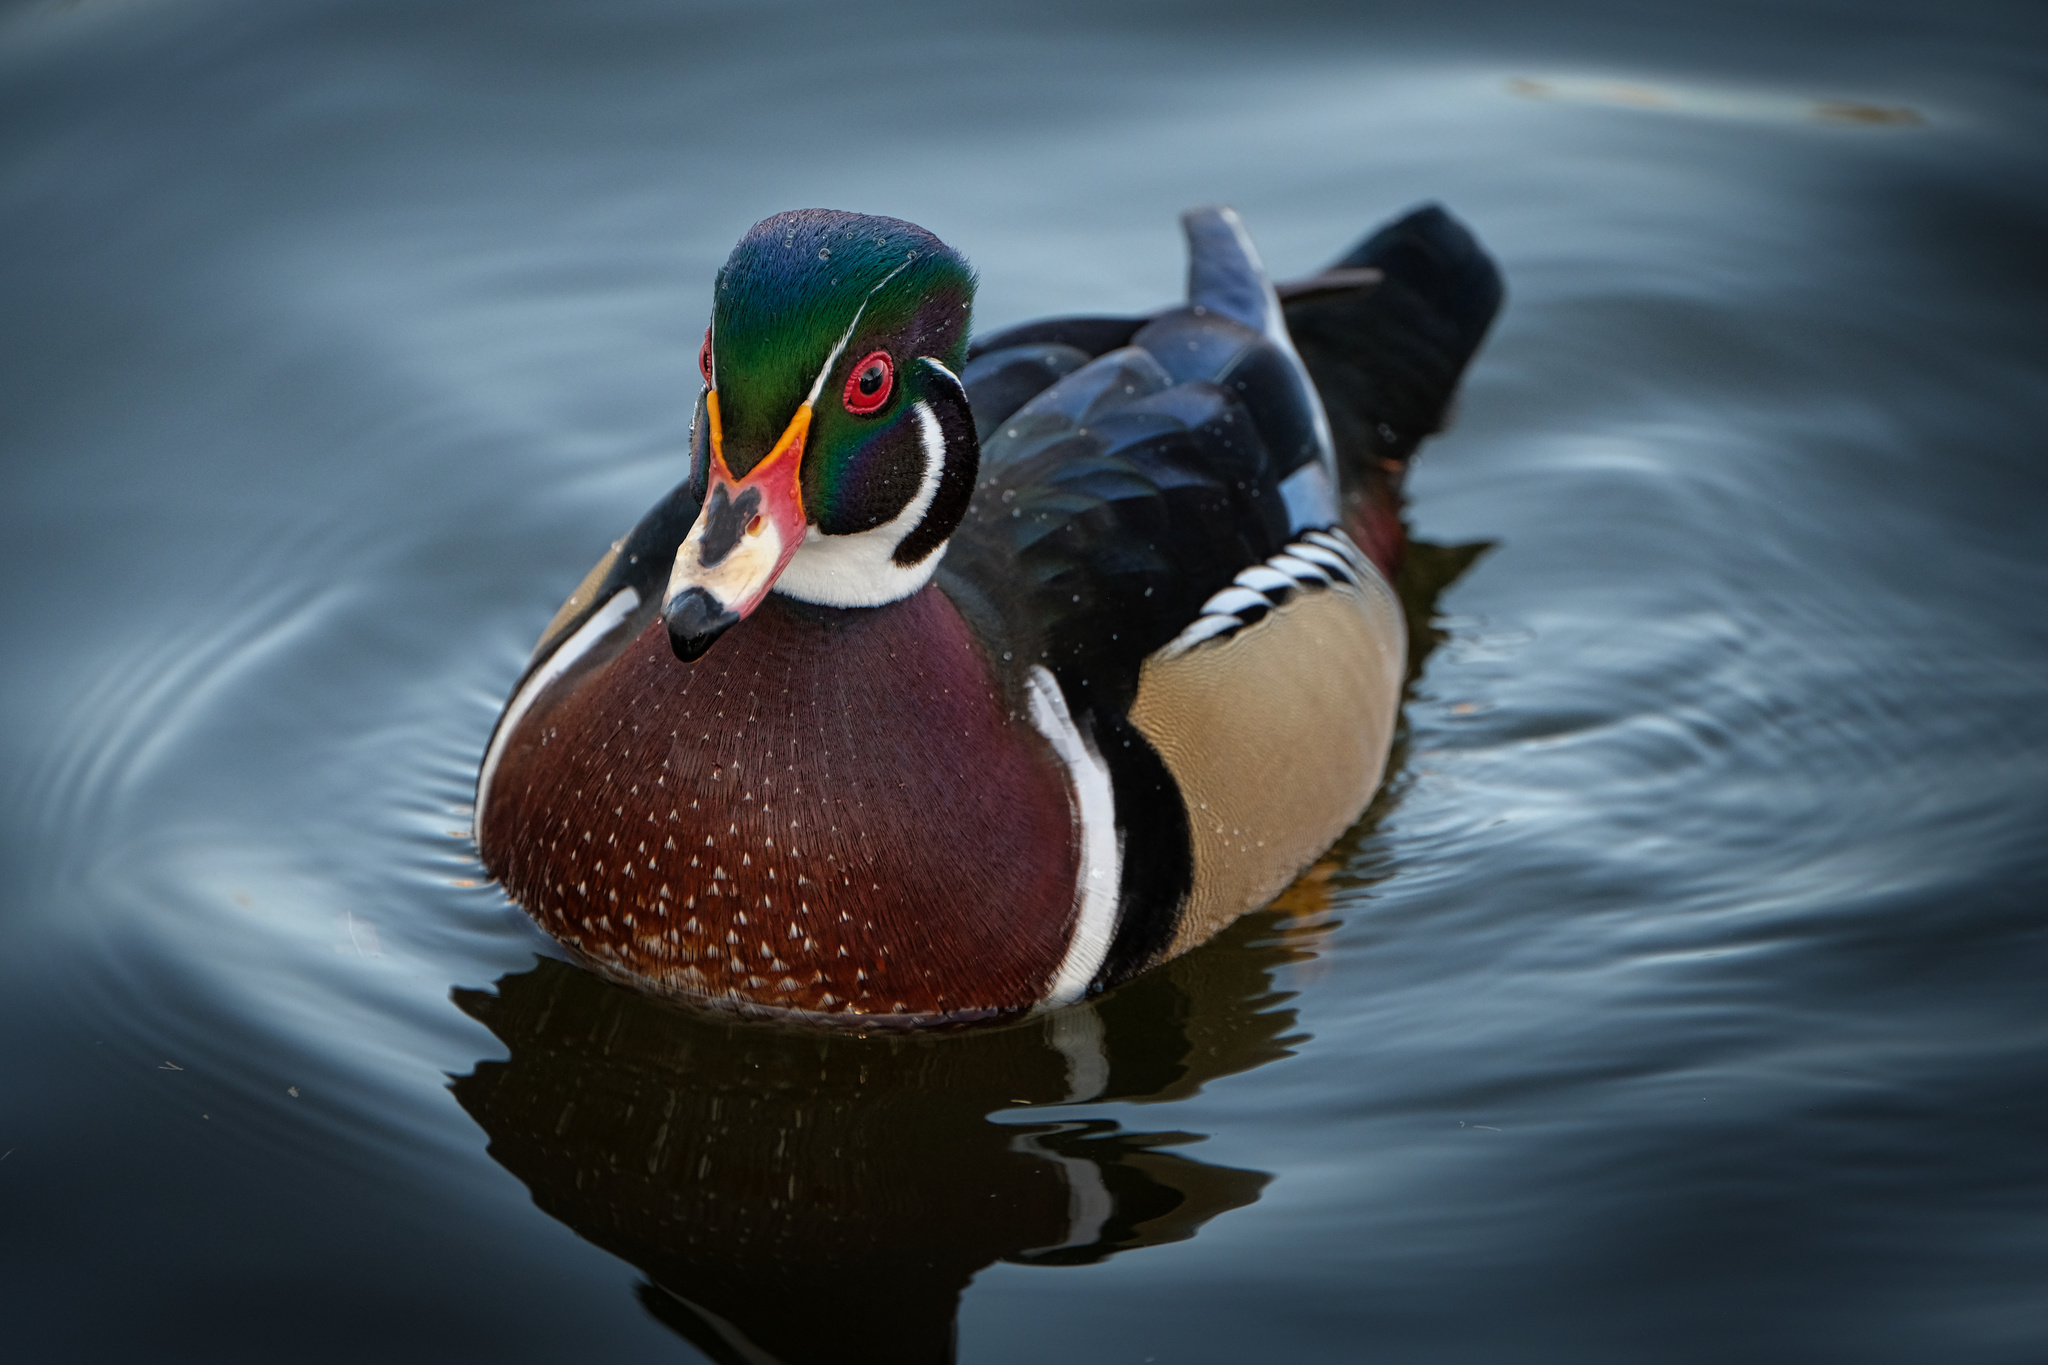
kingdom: Animalia
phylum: Chordata
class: Aves
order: Anseriformes
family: Anatidae
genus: Aix
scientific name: Aix sponsa
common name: Wood duck
